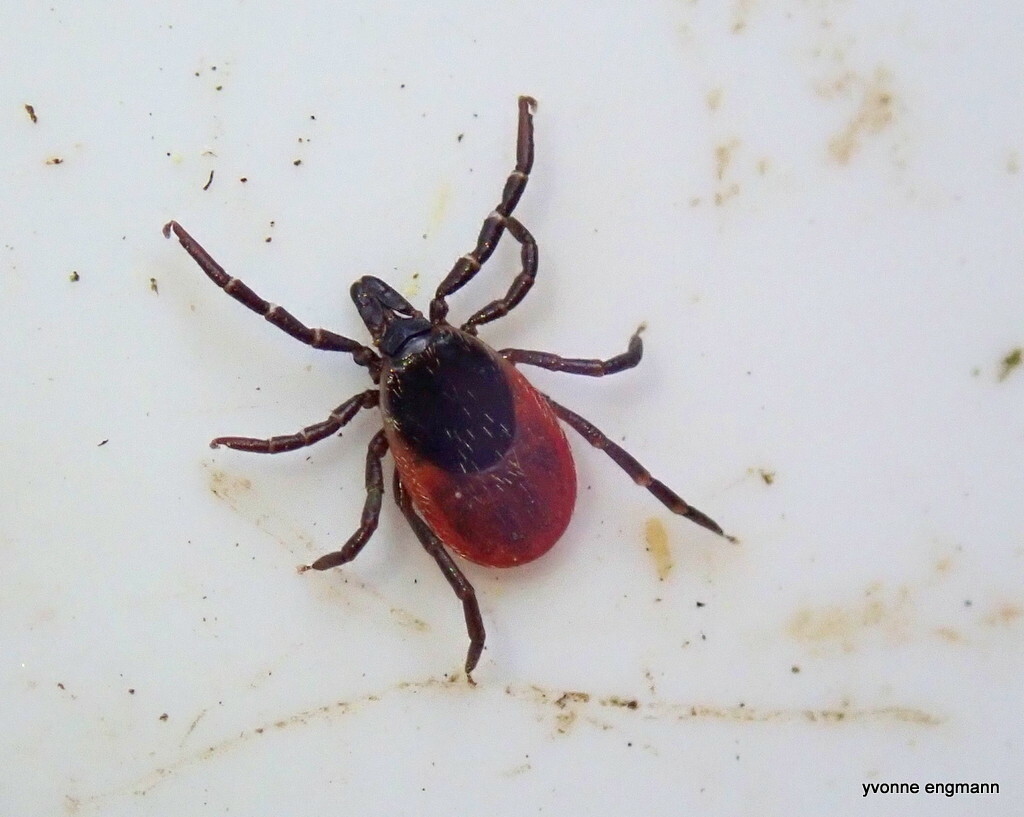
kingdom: Animalia
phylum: Arthropoda
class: Arachnida
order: Ixodida
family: Ixodidae
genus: Ixodes
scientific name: Ixodes ricinus
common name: Castor bean tick
